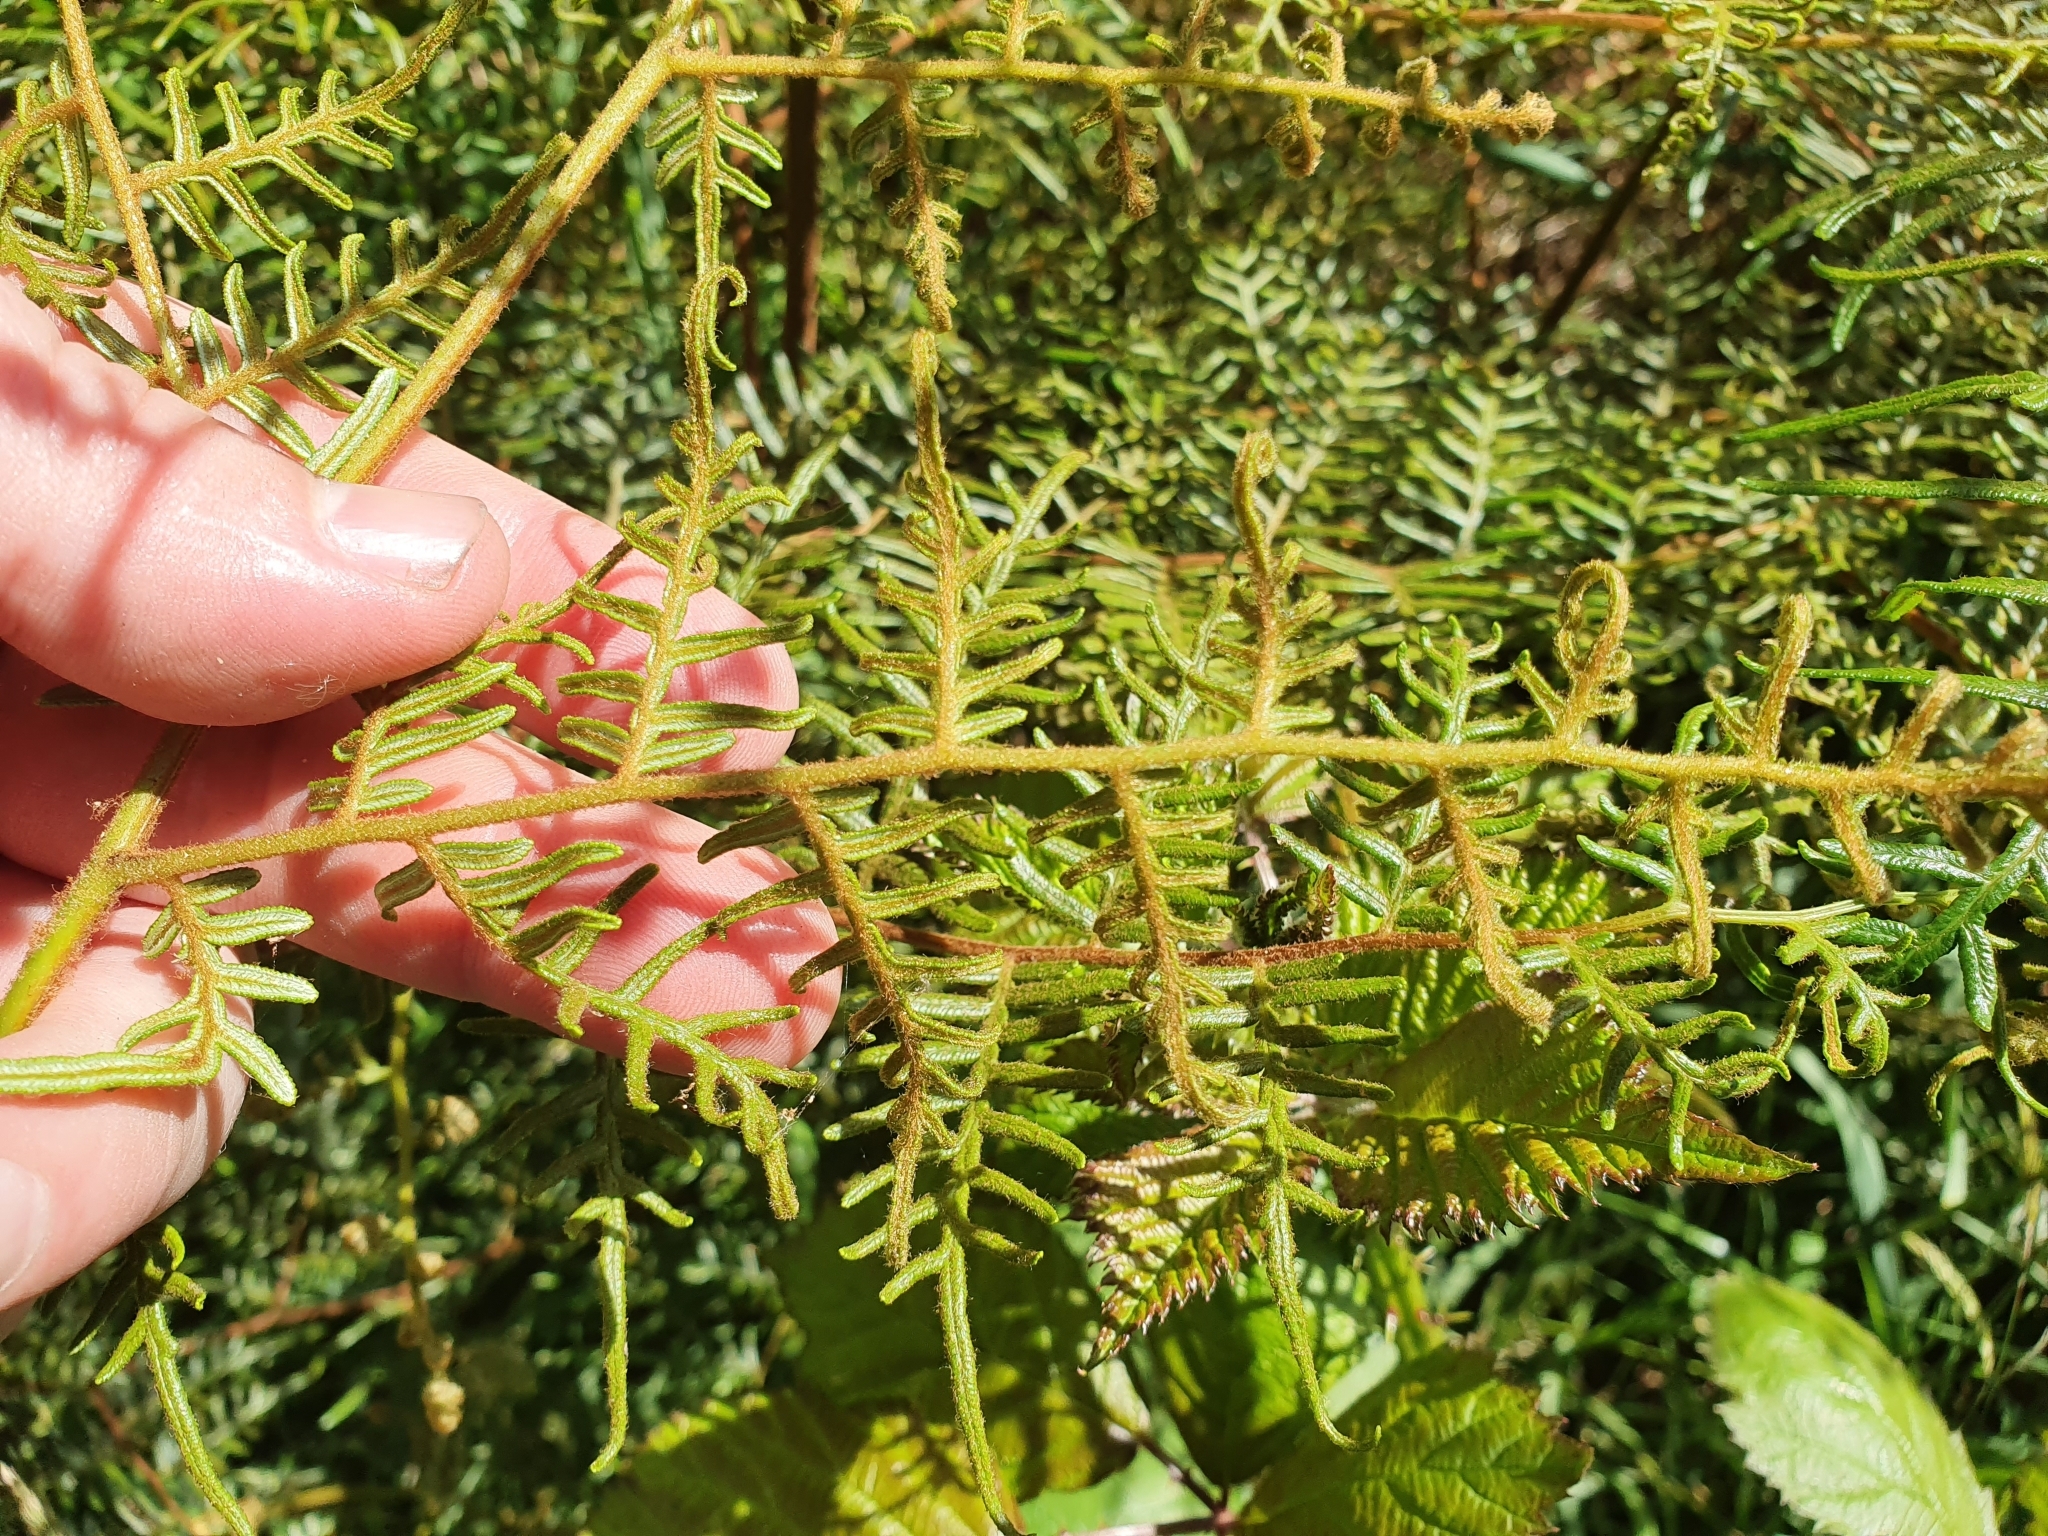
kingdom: Plantae
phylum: Tracheophyta
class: Polypodiopsida
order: Polypodiales
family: Dennstaedtiaceae
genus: Pteridium
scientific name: Pteridium esculentum
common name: Bracken fern
